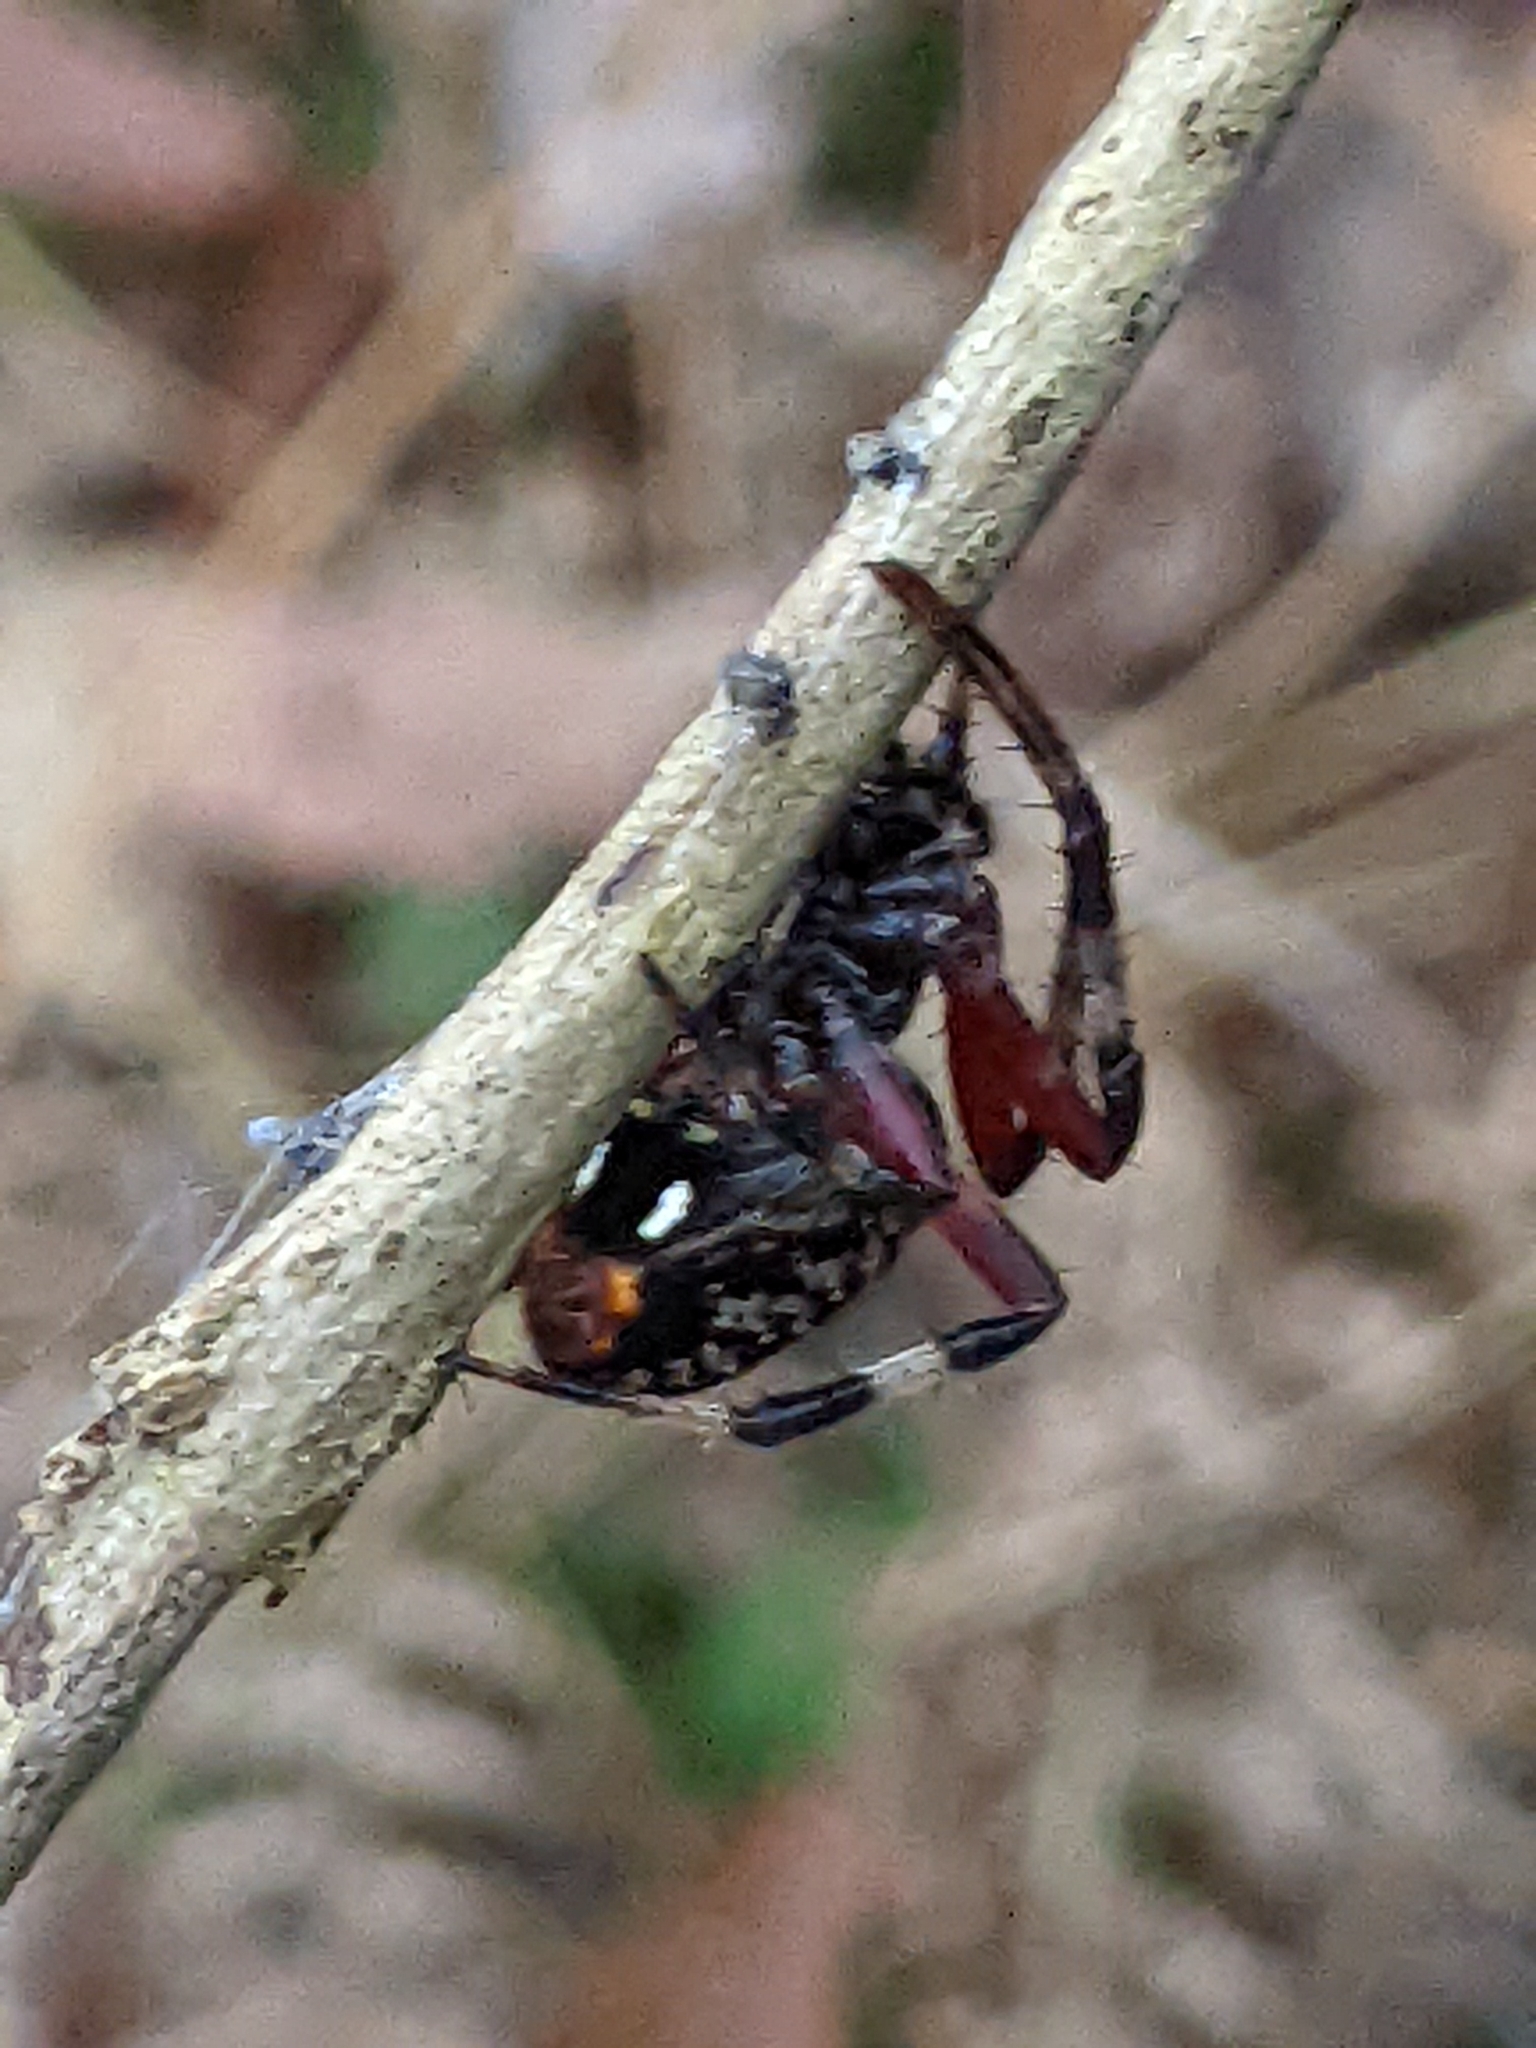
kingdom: Animalia
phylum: Arthropoda
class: Arachnida
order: Araneae
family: Araneidae
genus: Neoscona
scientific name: Neoscona domiciliorum
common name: Red-femured spotted orbweaver
